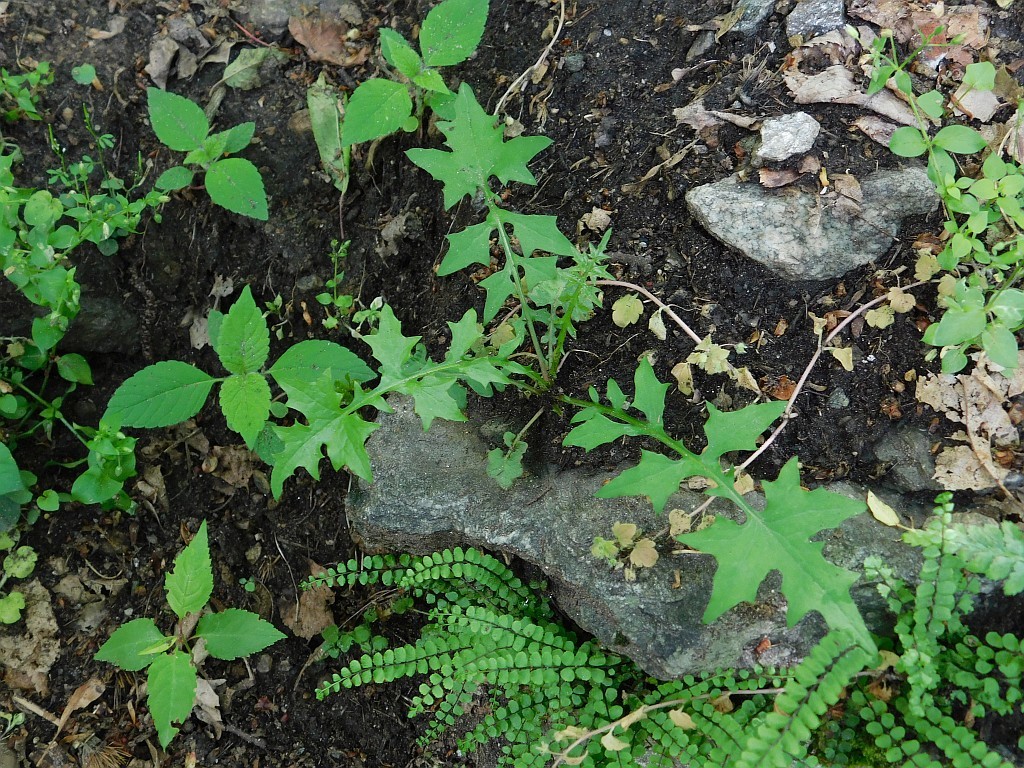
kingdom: Plantae
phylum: Tracheophyta
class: Magnoliopsida
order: Asterales
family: Asteraceae
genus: Mycelis
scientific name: Mycelis muralis
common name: Wall lettuce
